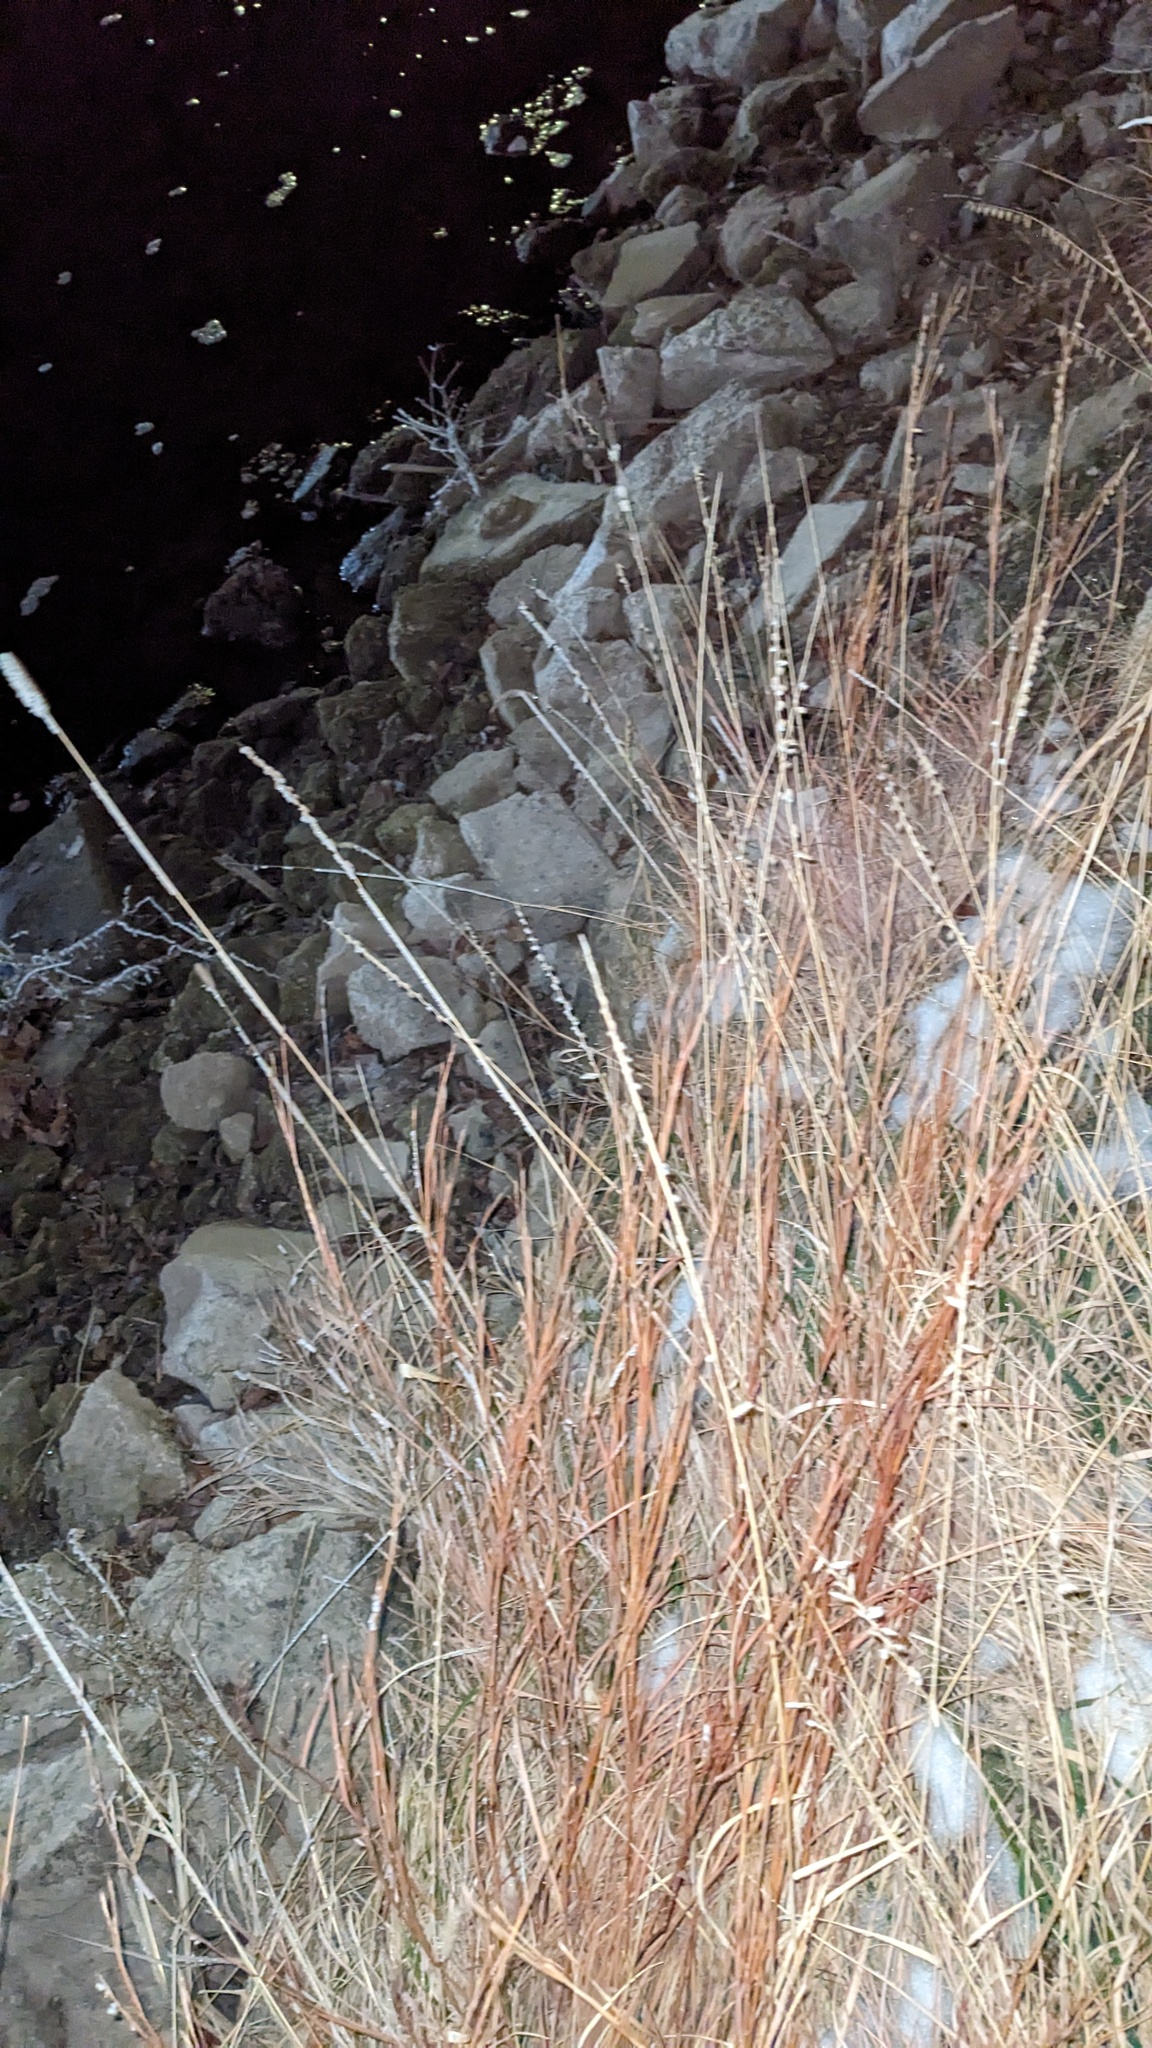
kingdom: Plantae
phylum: Tracheophyta
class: Liliopsida
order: Poales
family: Poaceae
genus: Bouteloua
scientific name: Bouteloua curtipendula
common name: Side-oats grama
